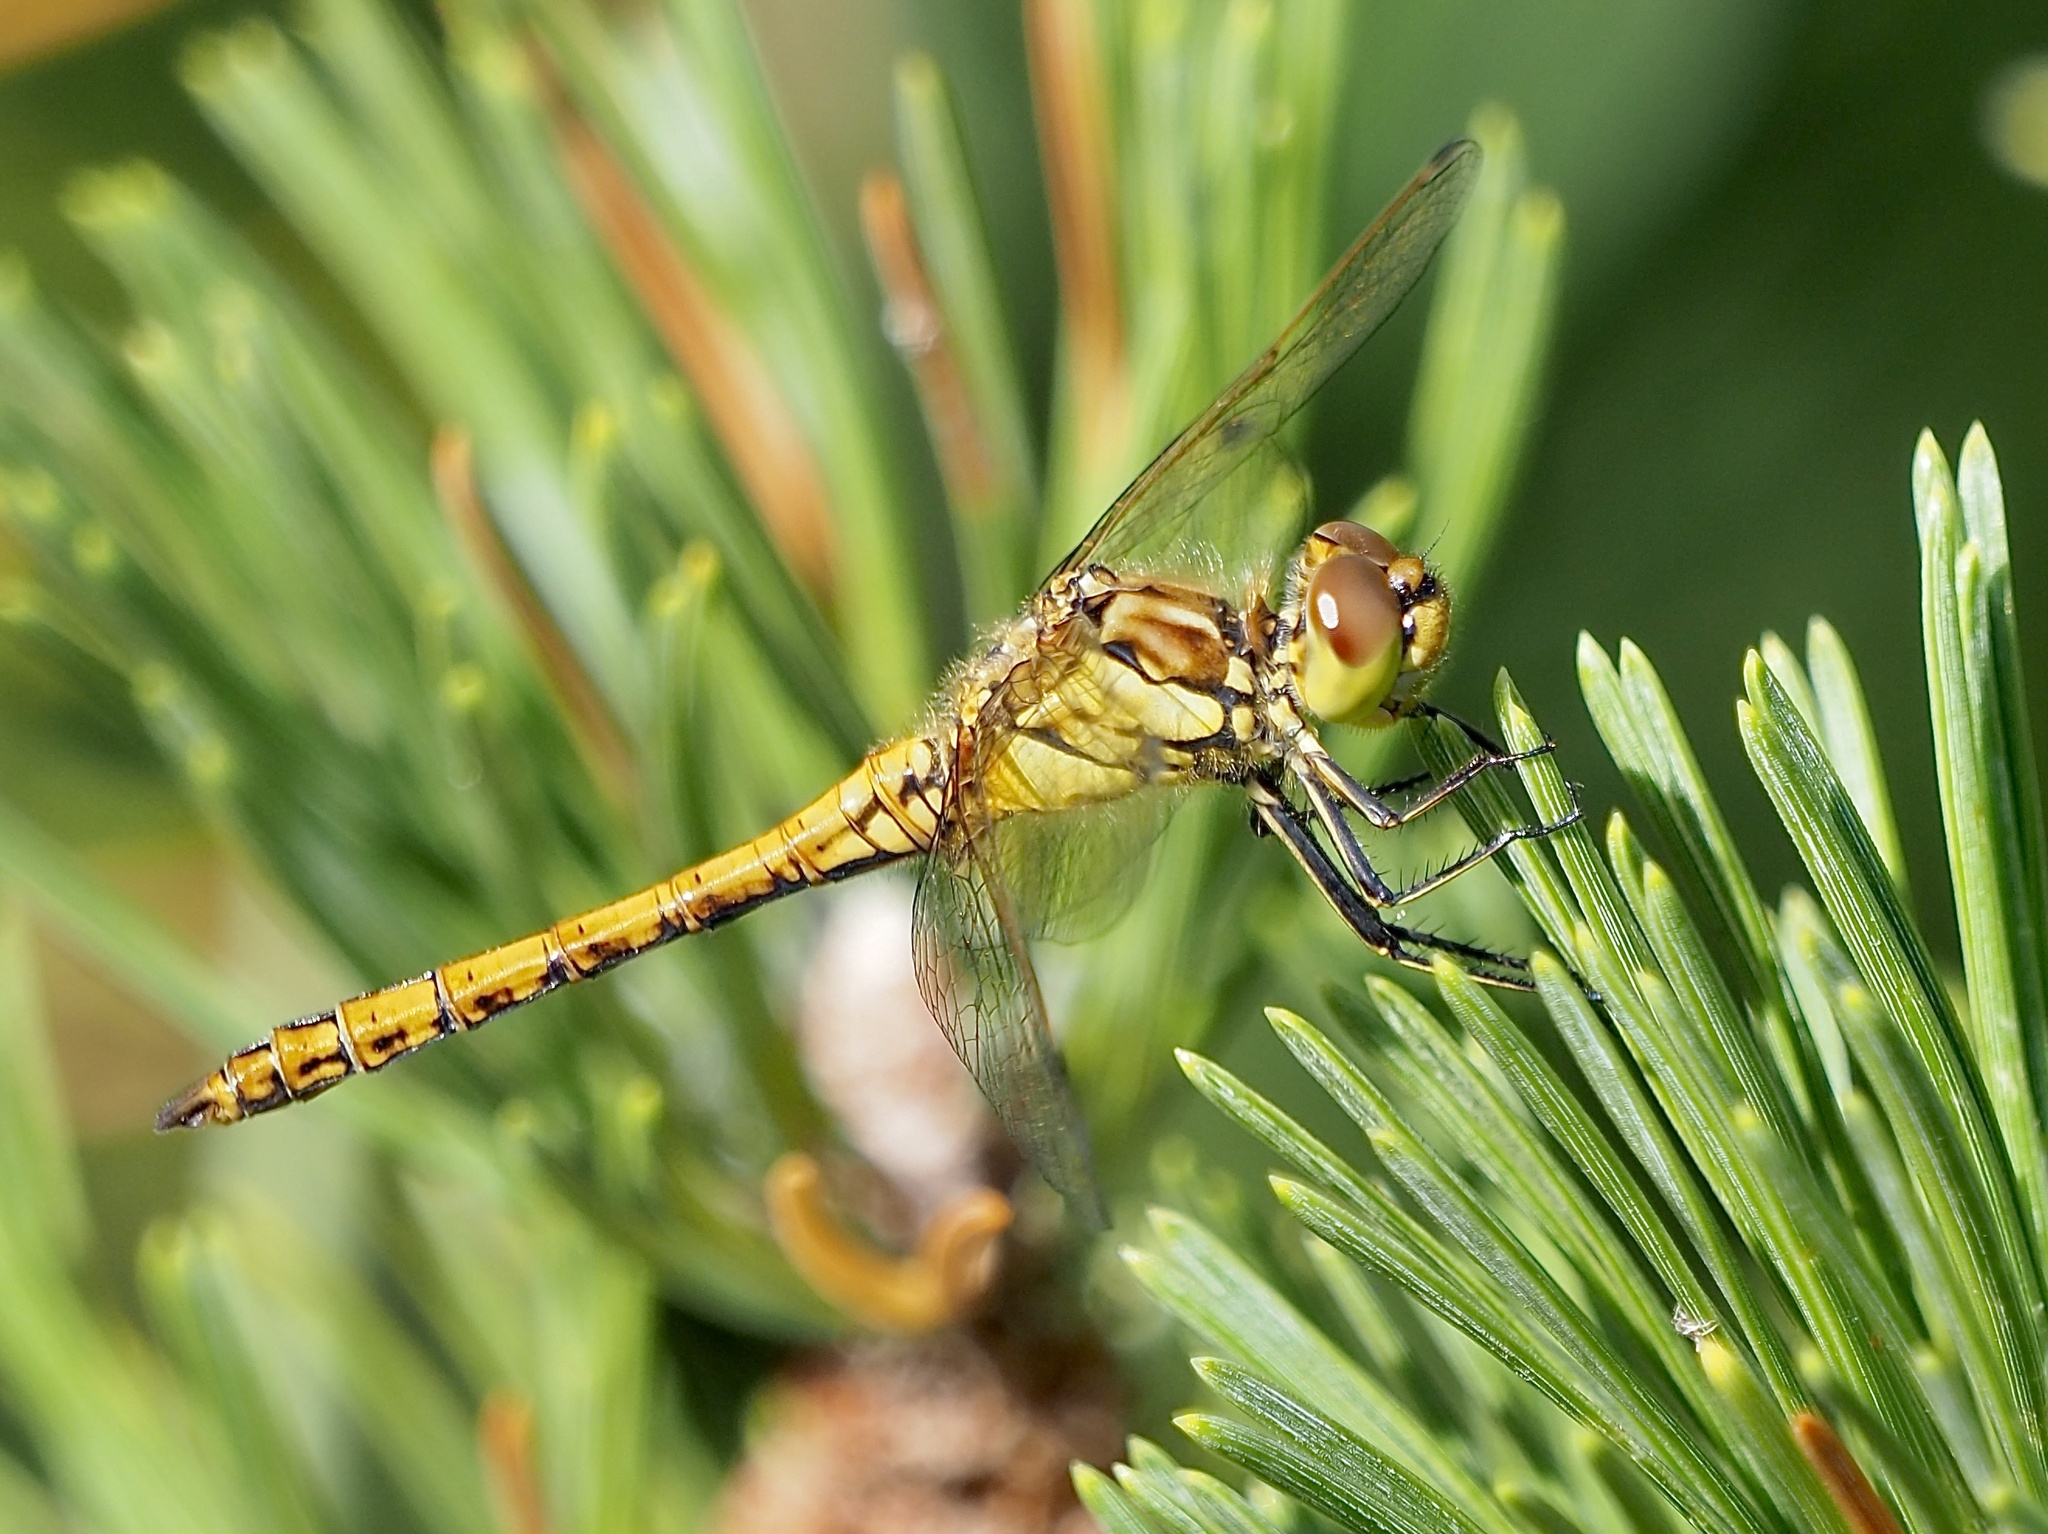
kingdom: Animalia
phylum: Arthropoda
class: Insecta
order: Odonata
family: Libellulidae
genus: Sympetrum
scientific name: Sympetrum vulgatum
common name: Vagrant darter
